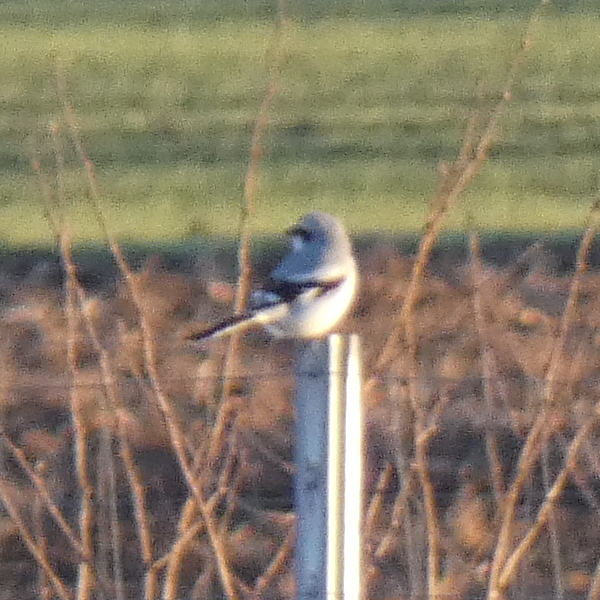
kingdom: Animalia
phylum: Chordata
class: Aves
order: Passeriformes
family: Laniidae
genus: Lanius
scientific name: Lanius excubitor
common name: Great grey shrike
